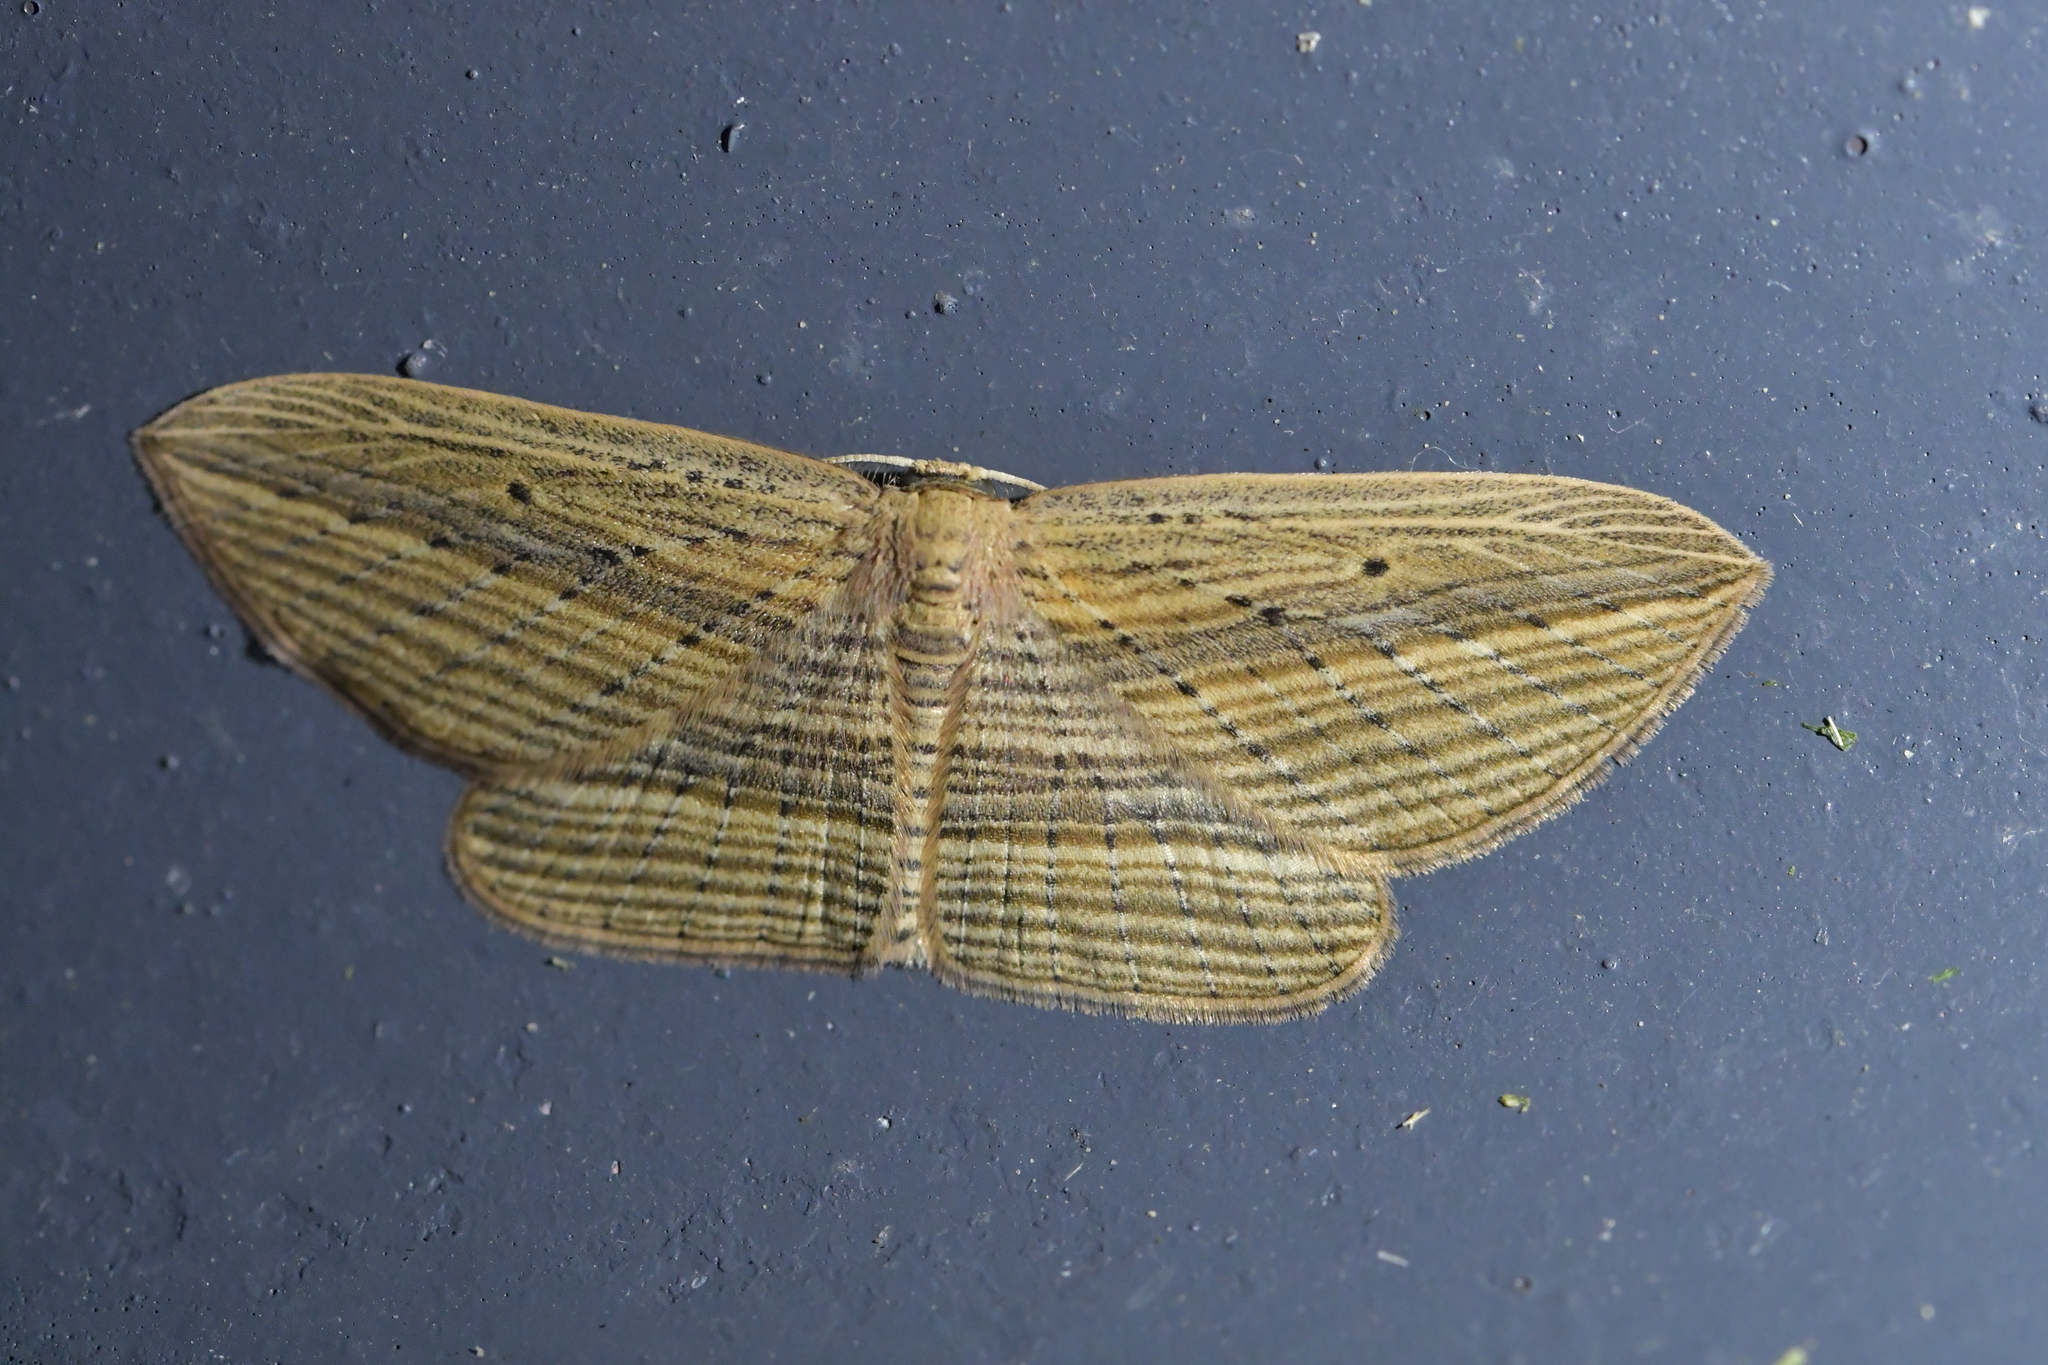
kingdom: Animalia
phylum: Arthropoda
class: Insecta
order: Lepidoptera
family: Geometridae
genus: Epiphryne
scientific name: Epiphryne verriculata
